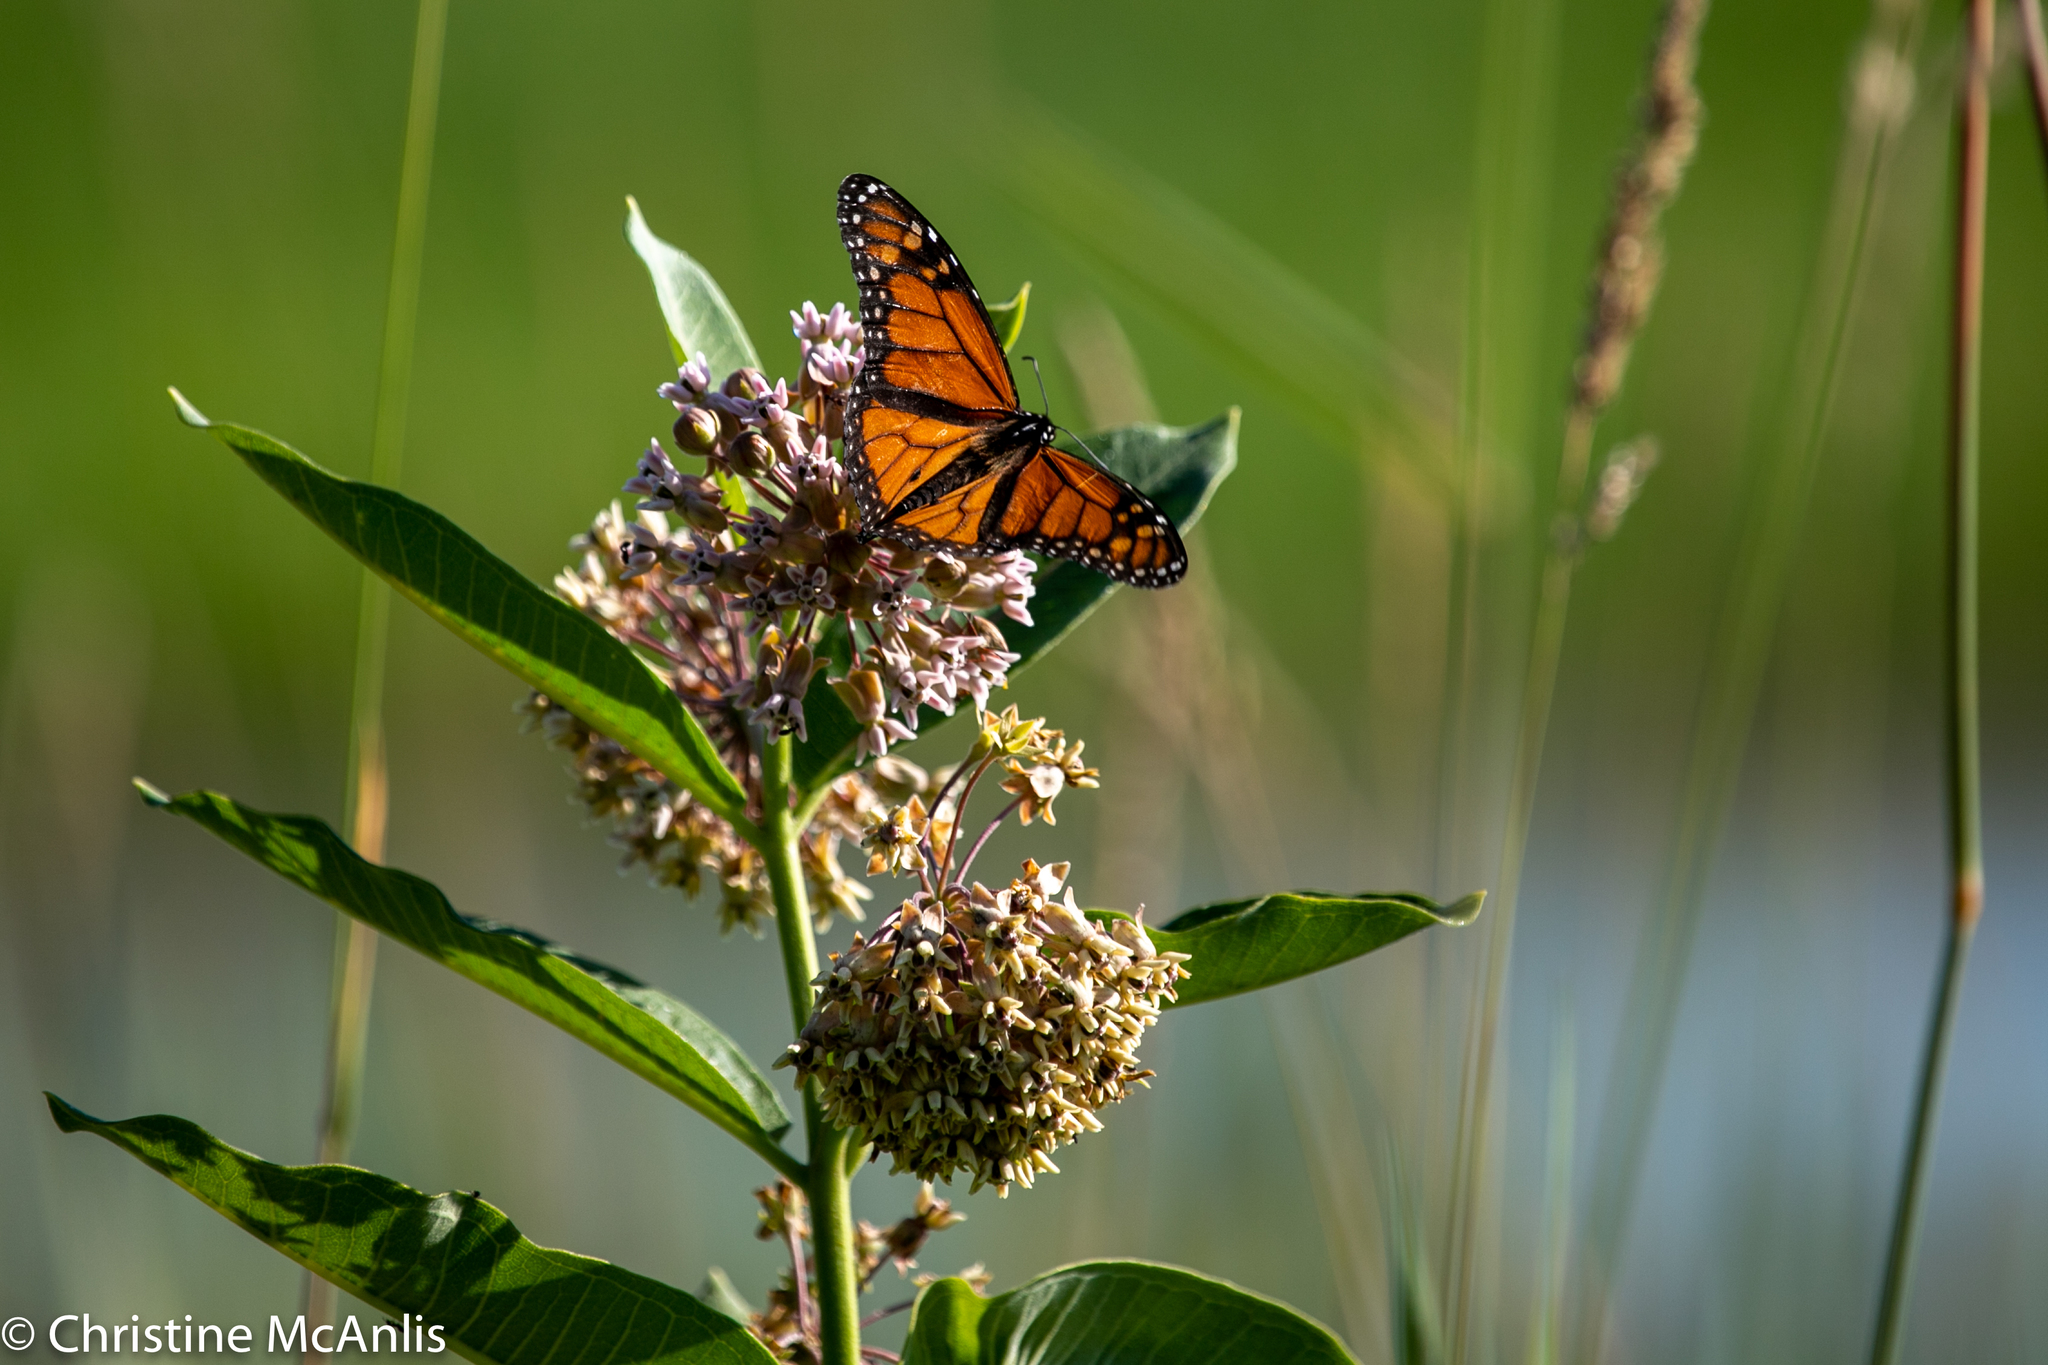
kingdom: Animalia
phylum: Arthropoda
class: Insecta
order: Lepidoptera
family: Nymphalidae
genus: Danaus
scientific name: Danaus plexippus
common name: Monarch
